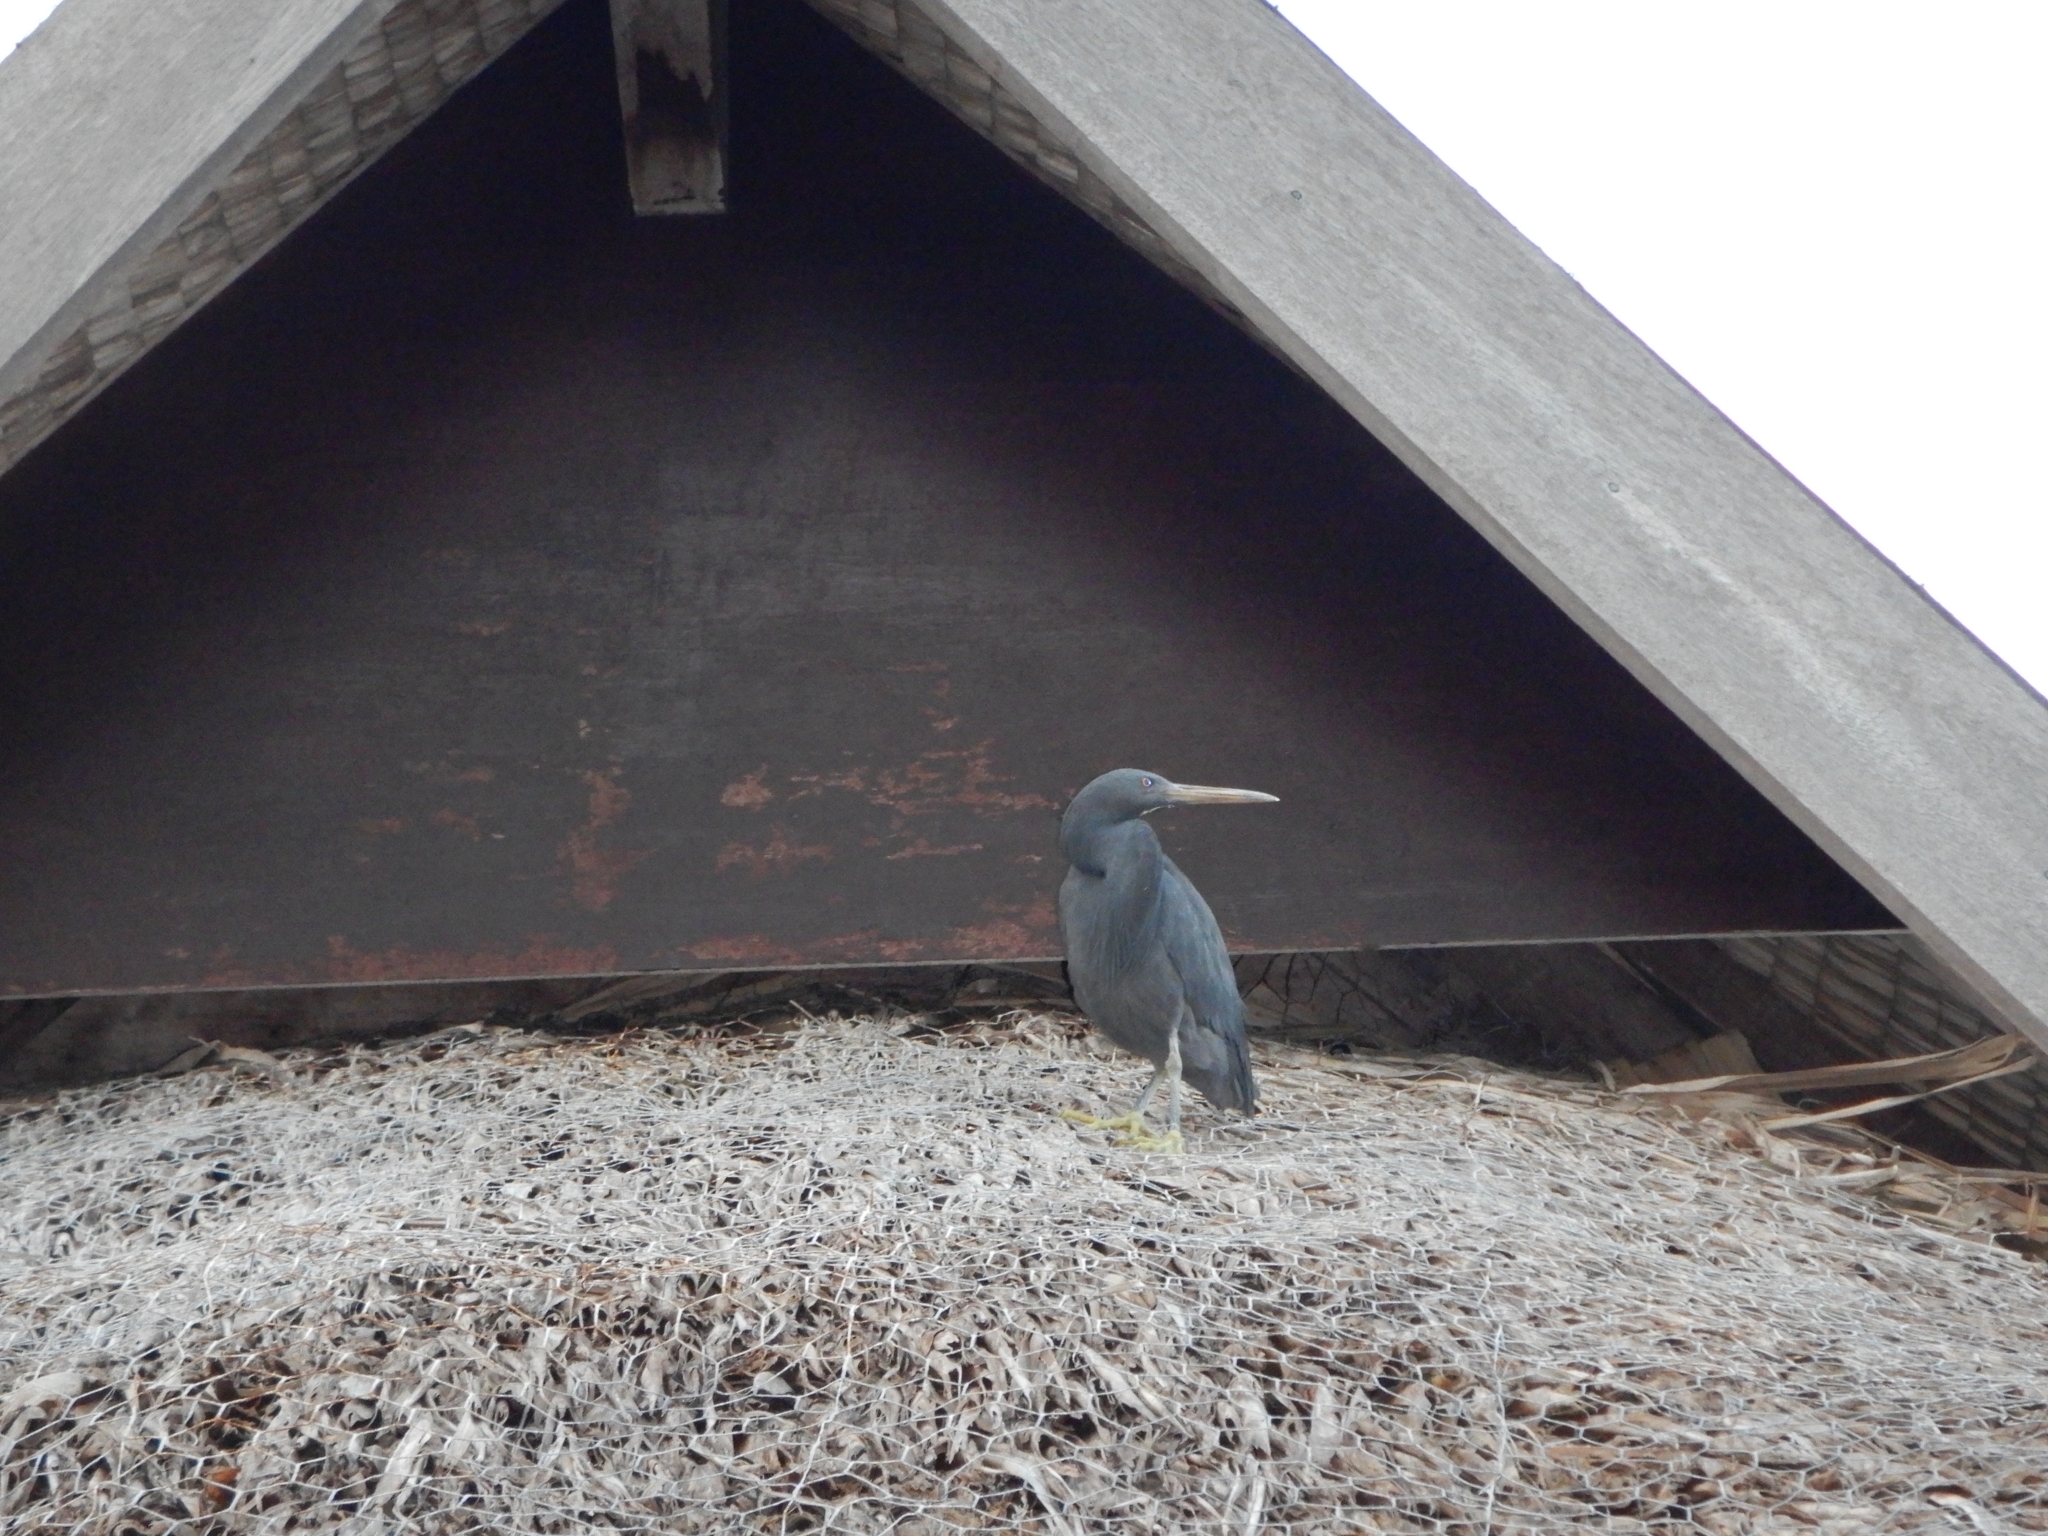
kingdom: Animalia
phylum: Chordata
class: Aves
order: Pelecaniformes
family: Ardeidae
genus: Egretta
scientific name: Egretta sacra
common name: Pacific reef heron
